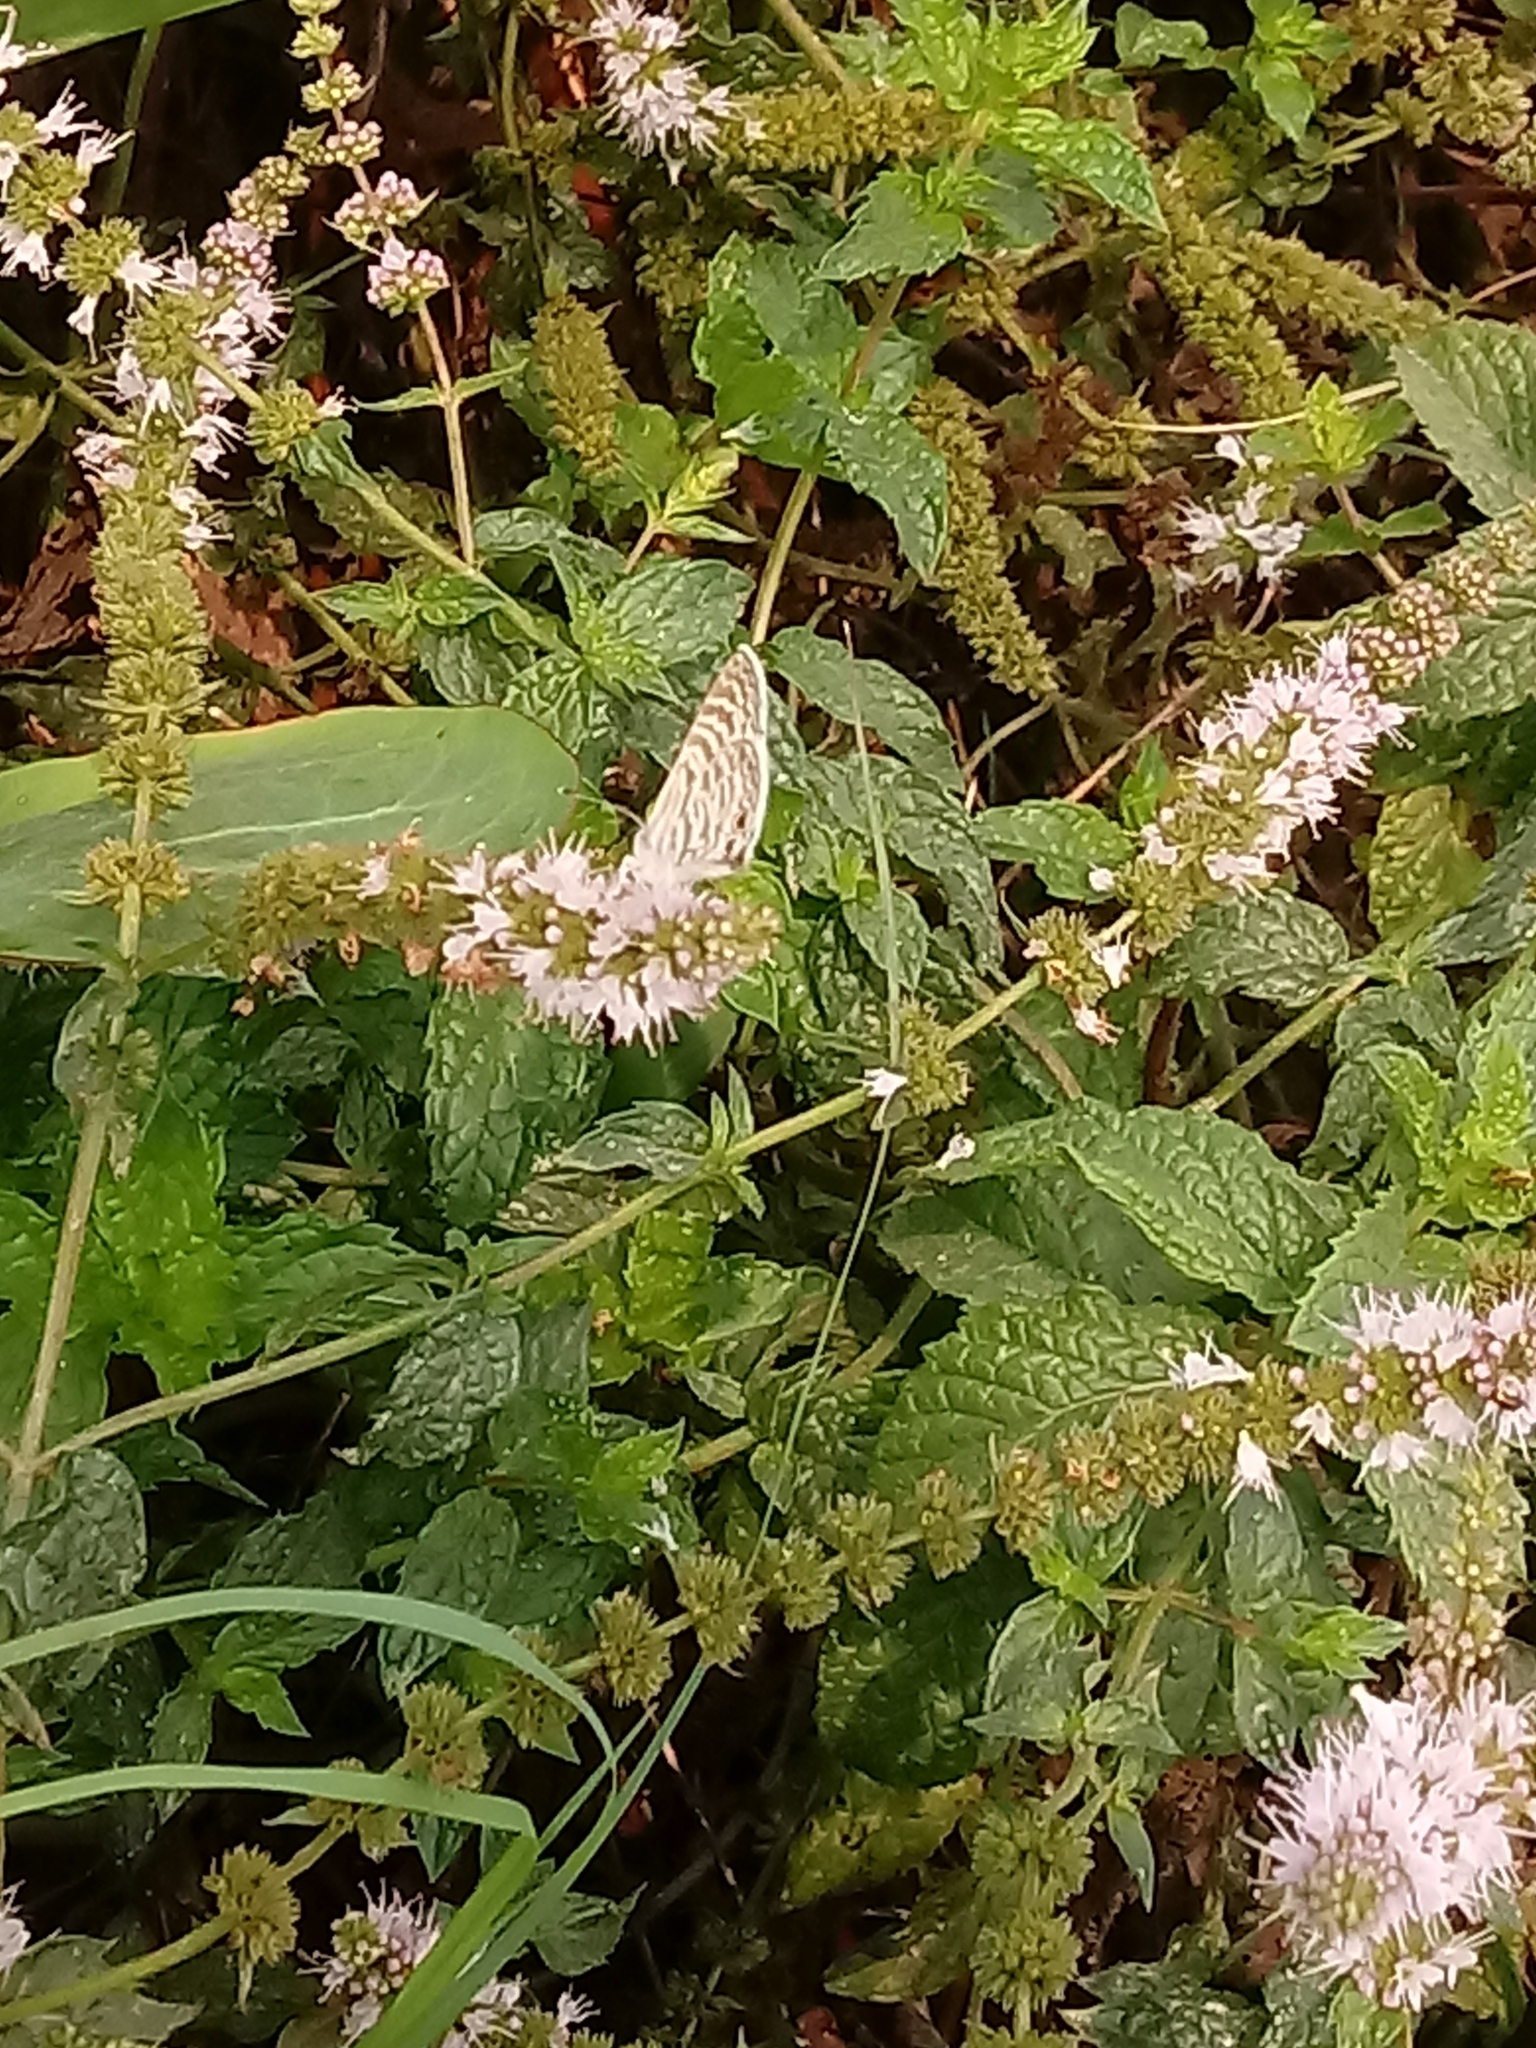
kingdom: Animalia
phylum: Arthropoda
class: Insecta
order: Lepidoptera
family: Lycaenidae
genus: Leptotes
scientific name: Leptotes marina
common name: Marine blue
